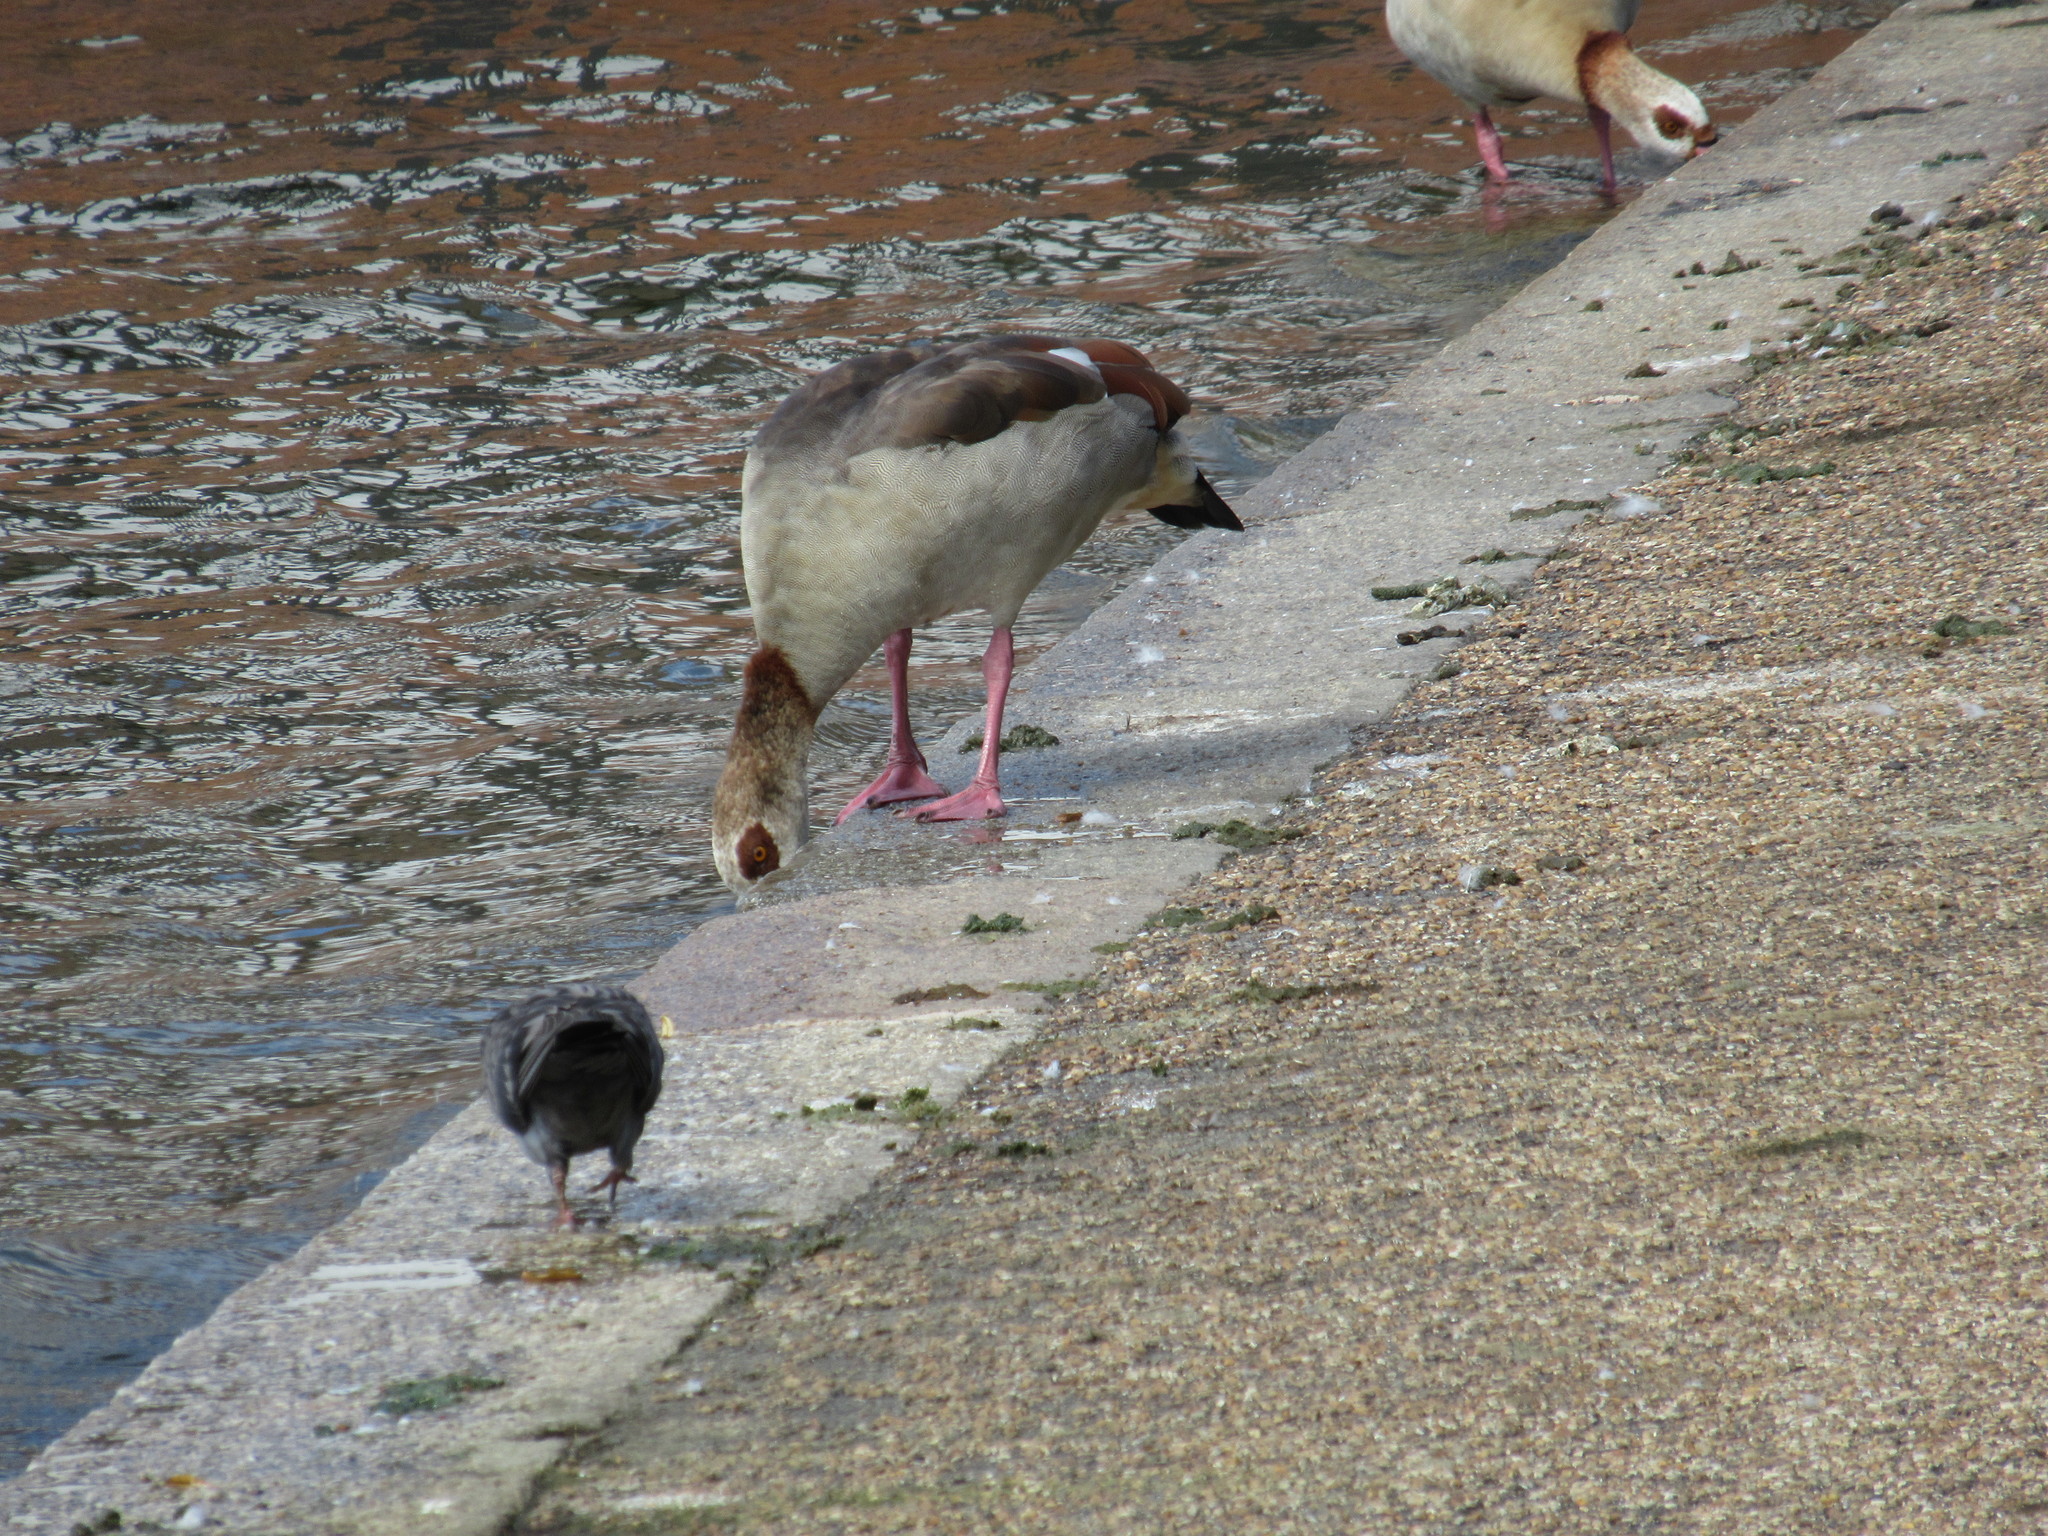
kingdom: Animalia
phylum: Chordata
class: Aves
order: Anseriformes
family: Anatidae
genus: Alopochen
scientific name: Alopochen aegyptiaca
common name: Egyptian goose
